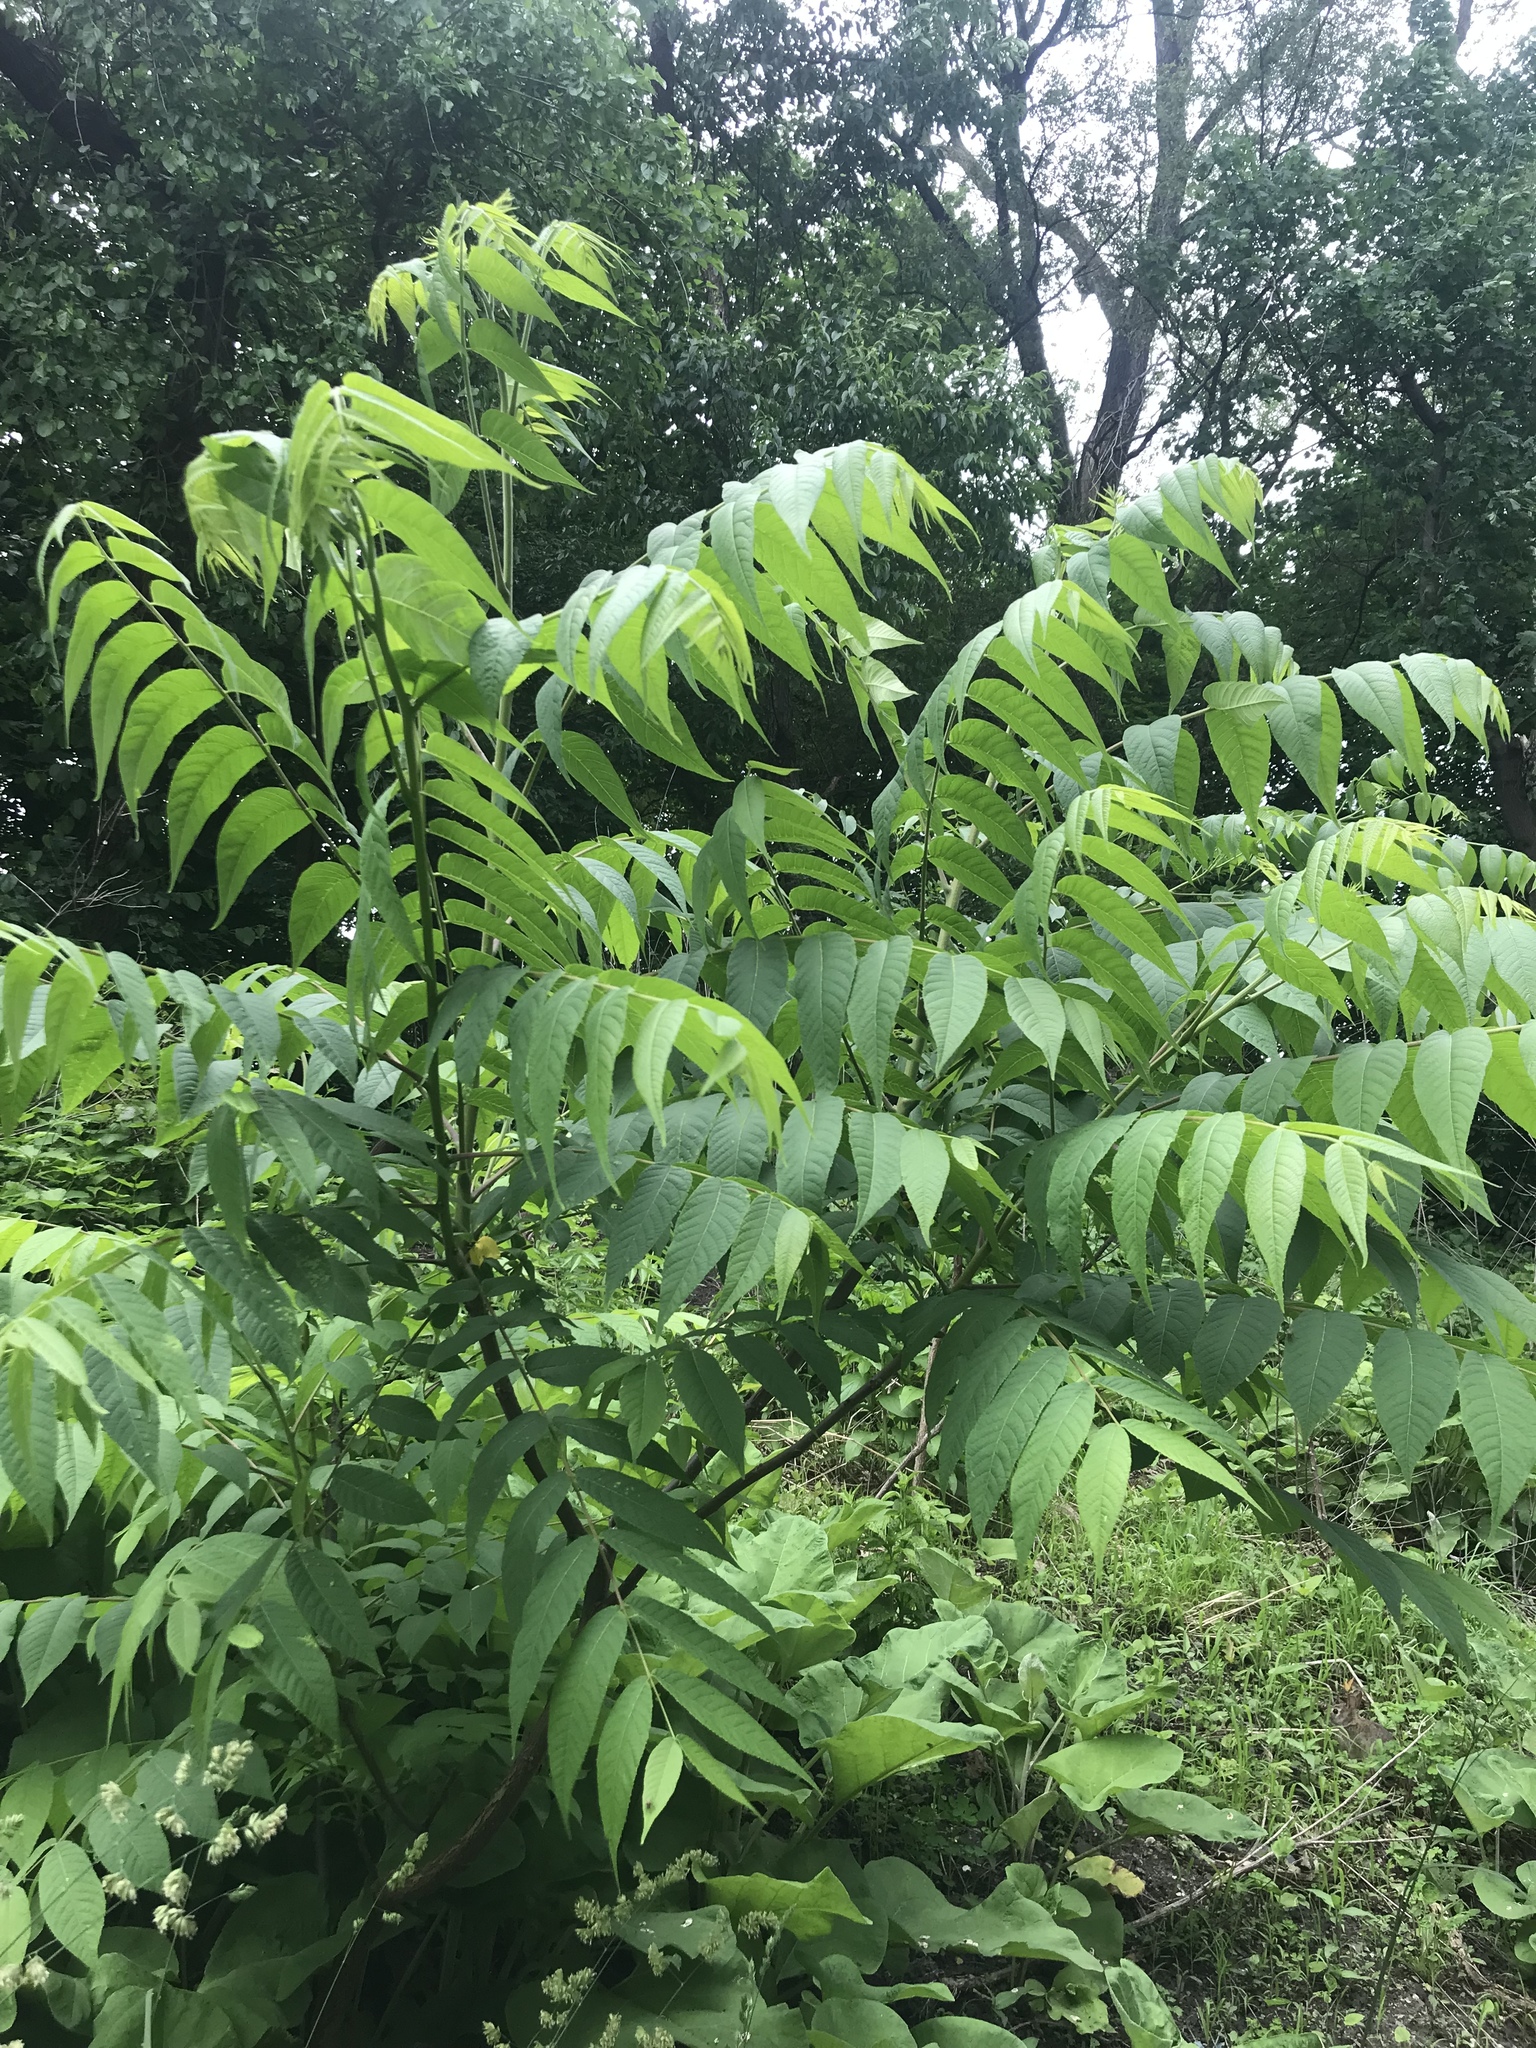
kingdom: Plantae
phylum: Tracheophyta
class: Magnoliopsida
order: Fagales
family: Juglandaceae
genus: Juglans
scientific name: Juglans nigra
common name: Black walnut
